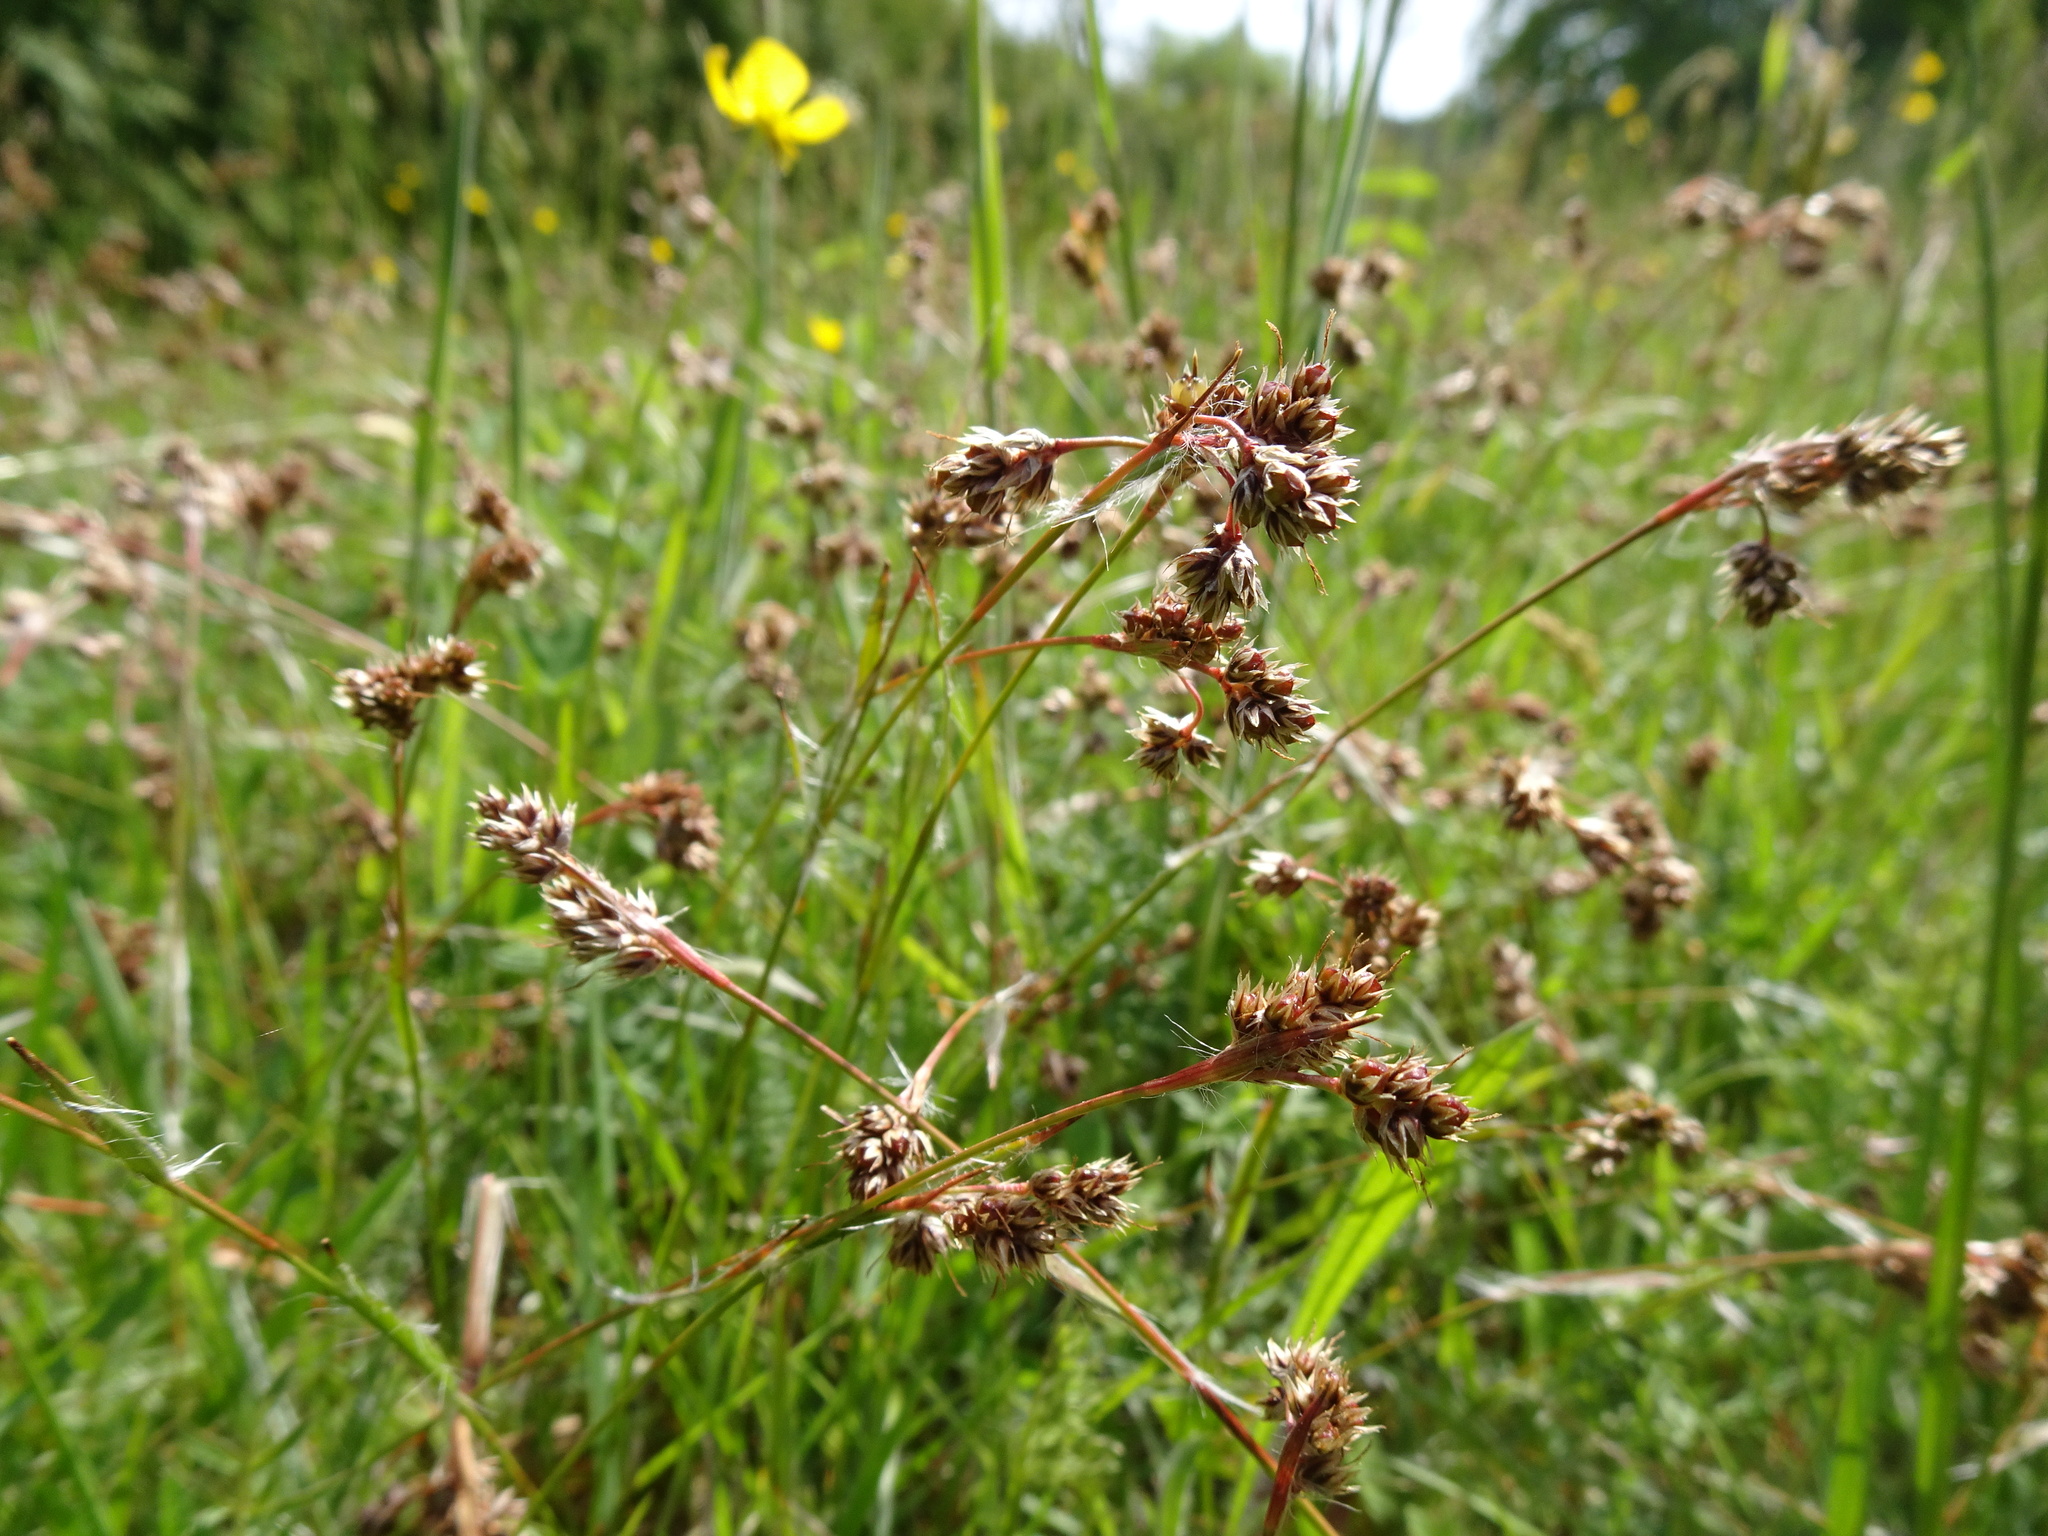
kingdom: Plantae
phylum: Tracheophyta
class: Liliopsida
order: Poales
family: Juncaceae
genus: Luzula
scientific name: Luzula campestris
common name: Field wood-rush
